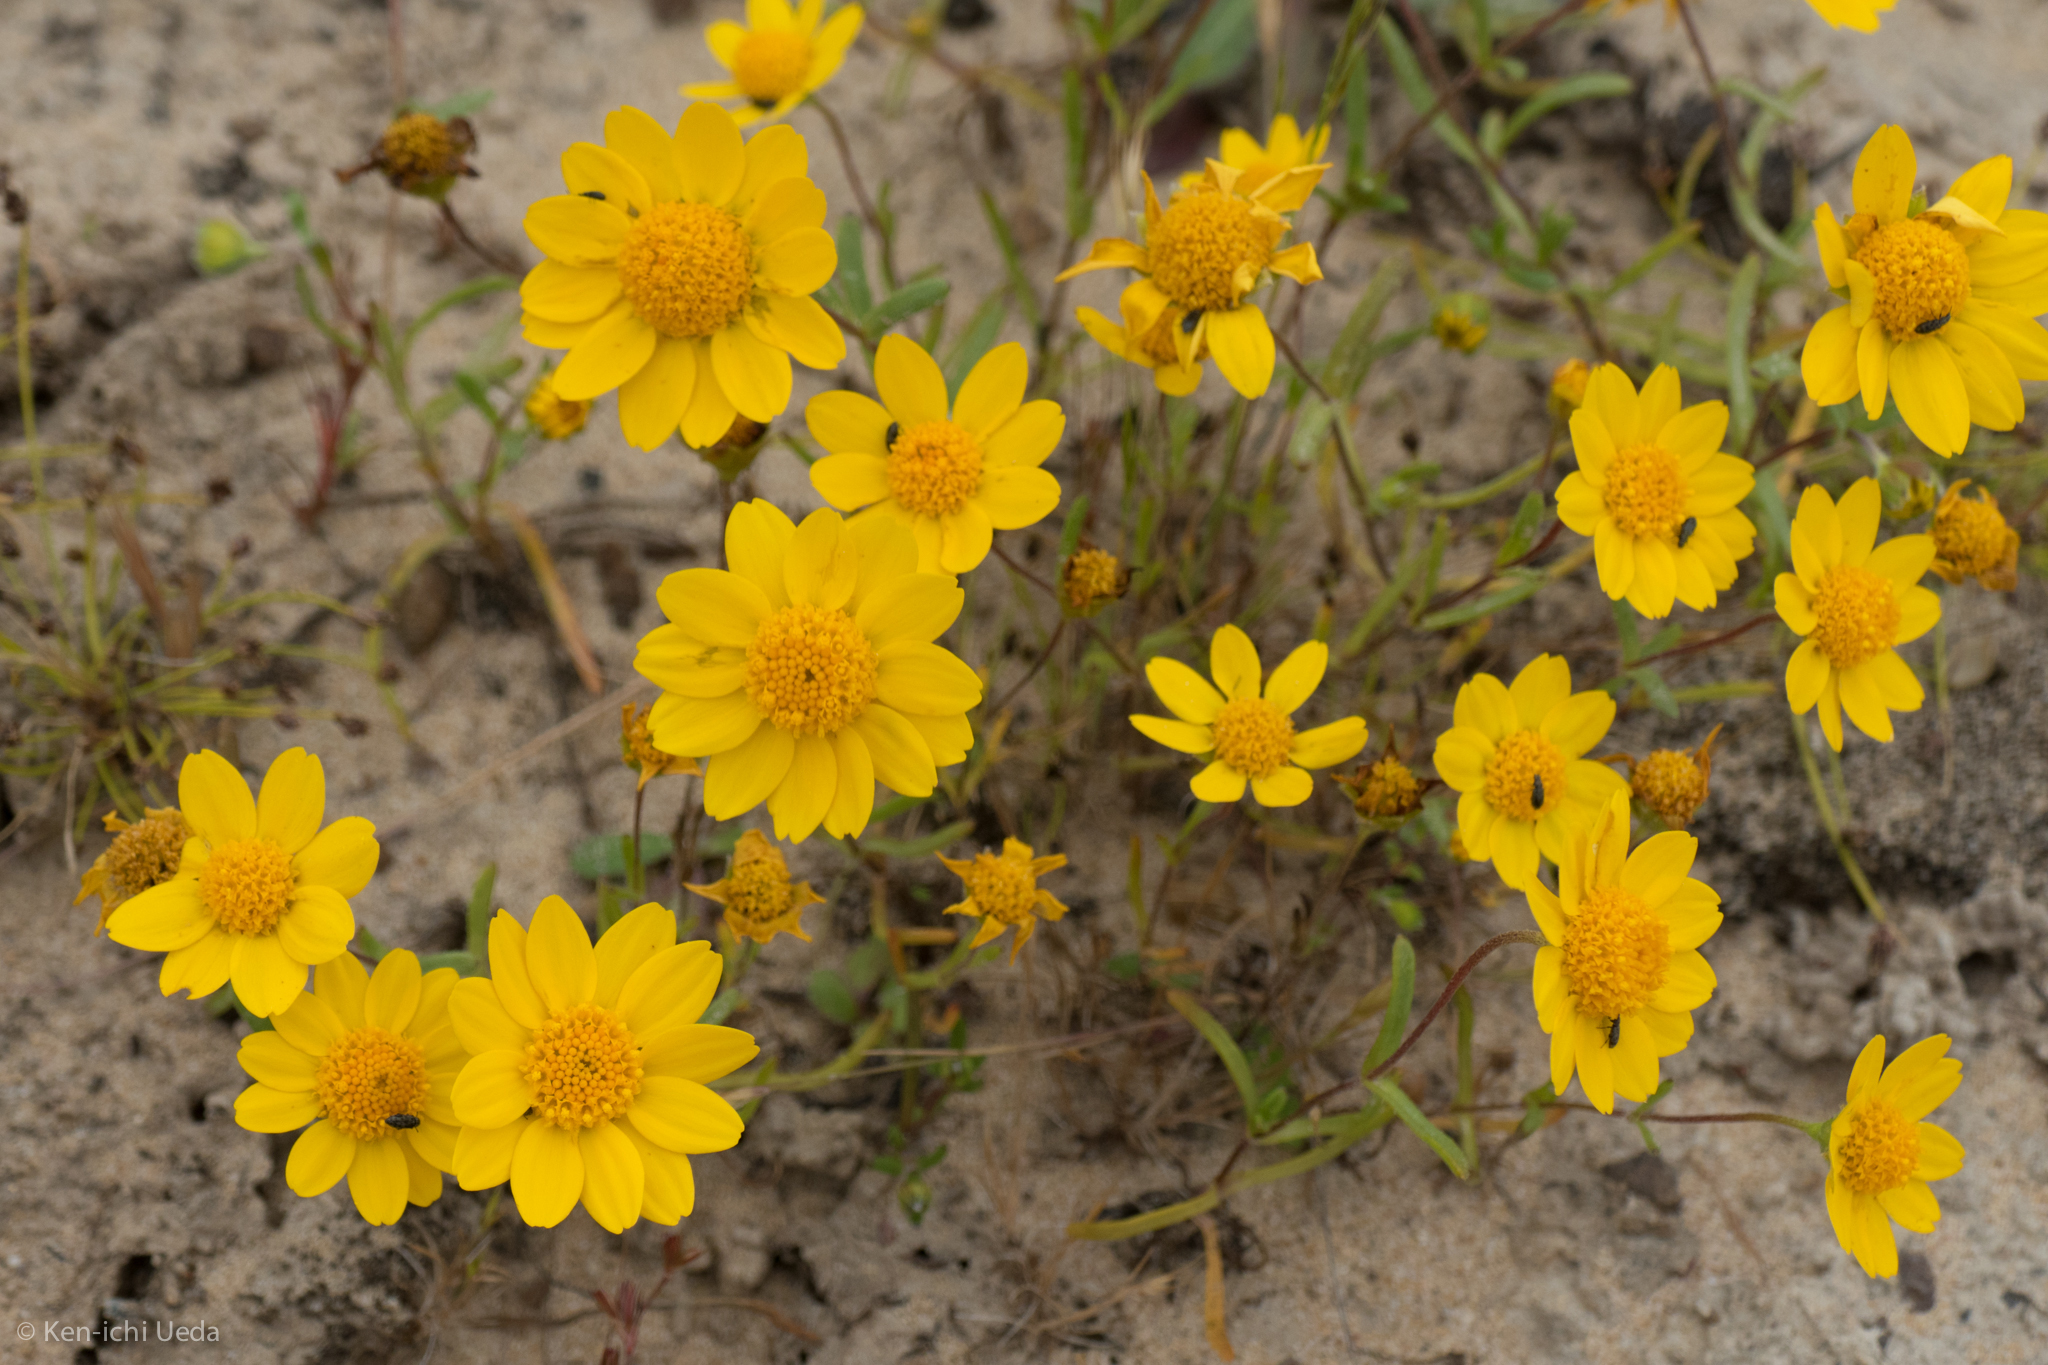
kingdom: Plantae
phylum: Tracheophyta
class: Magnoliopsida
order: Asterales
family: Asteraceae
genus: Lasthenia
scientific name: Lasthenia californica
